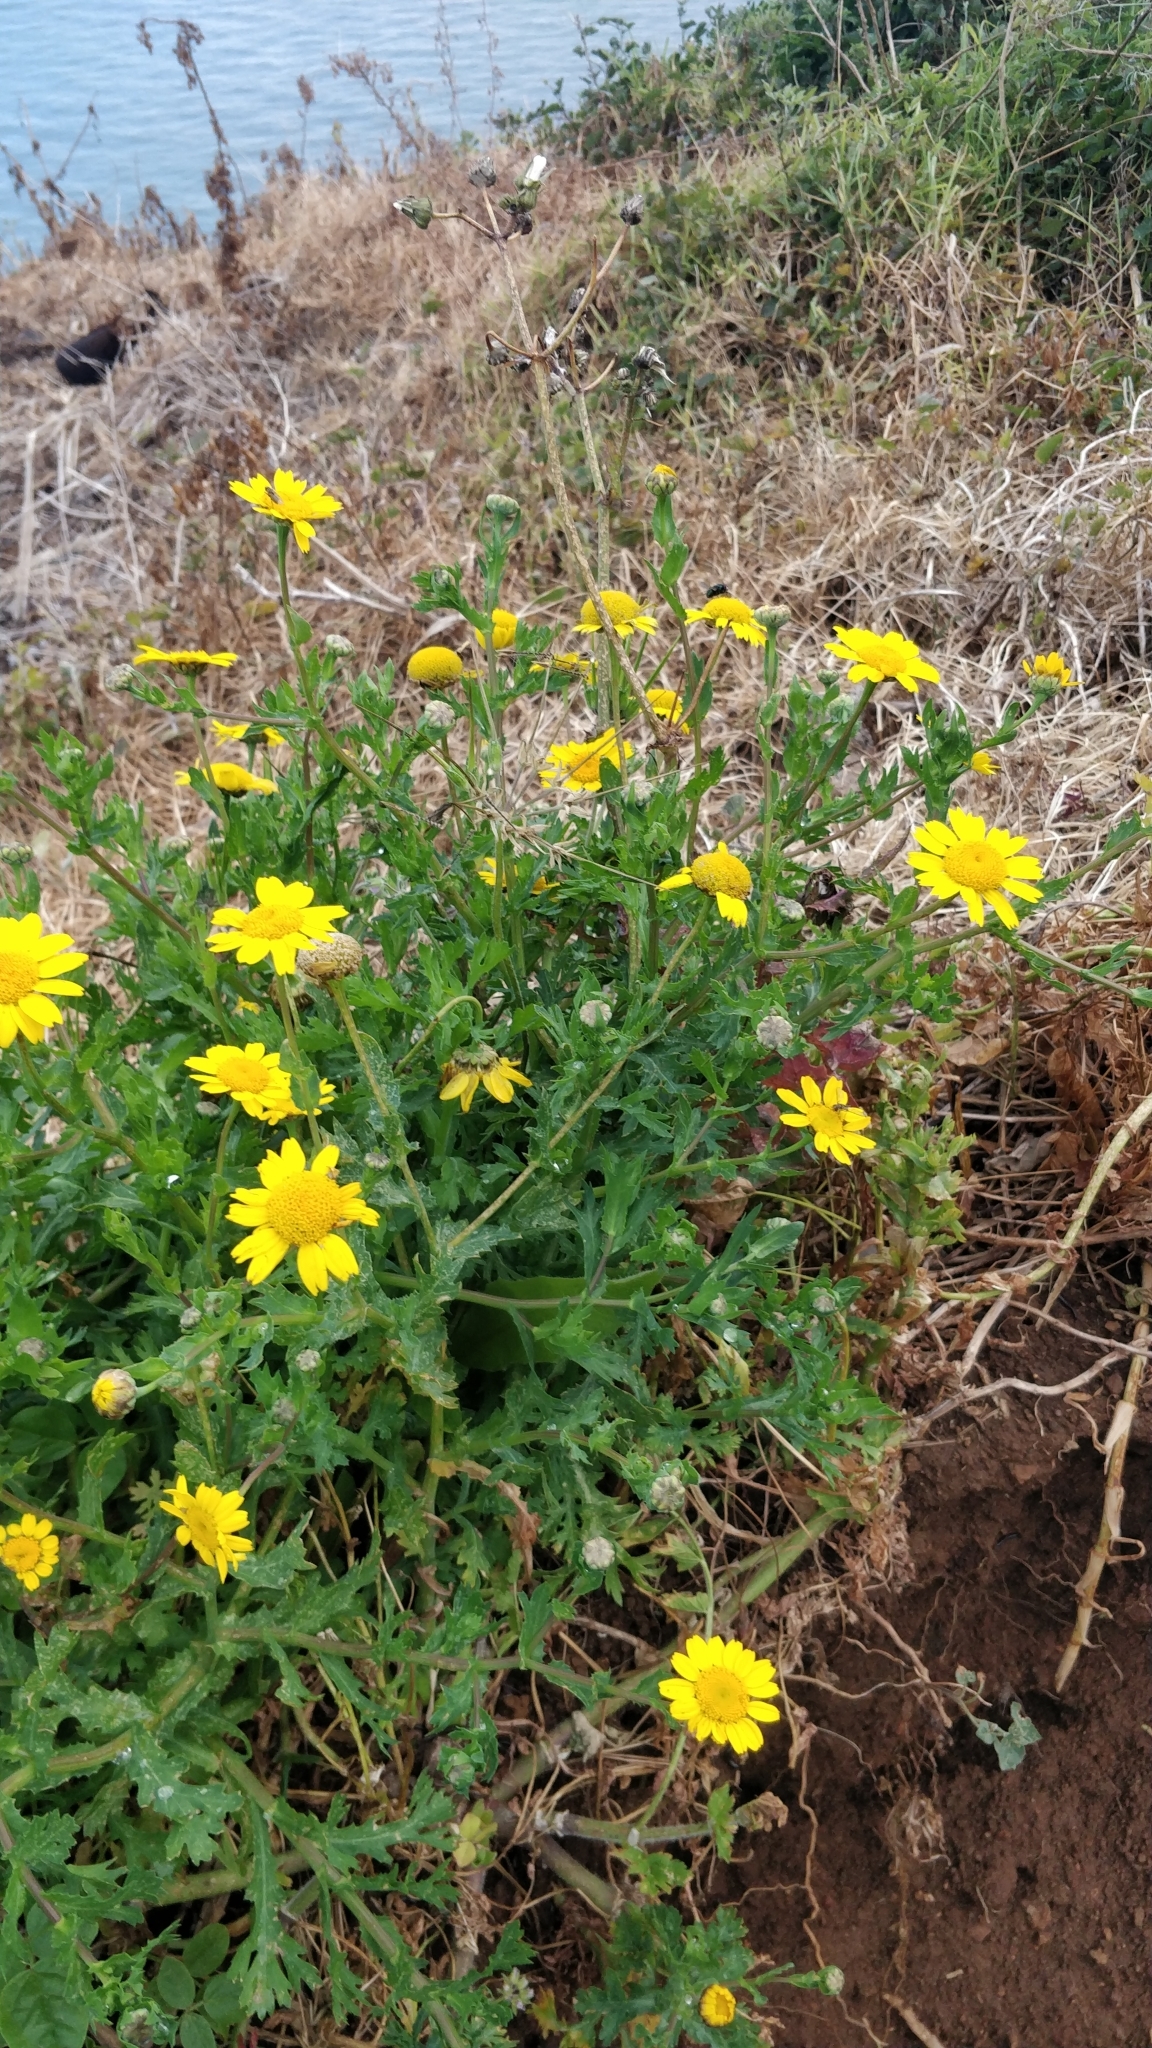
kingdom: Plantae
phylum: Tracheophyta
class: Magnoliopsida
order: Asterales
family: Asteraceae
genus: Glebionis
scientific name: Glebionis segetum
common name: Corndaisy
